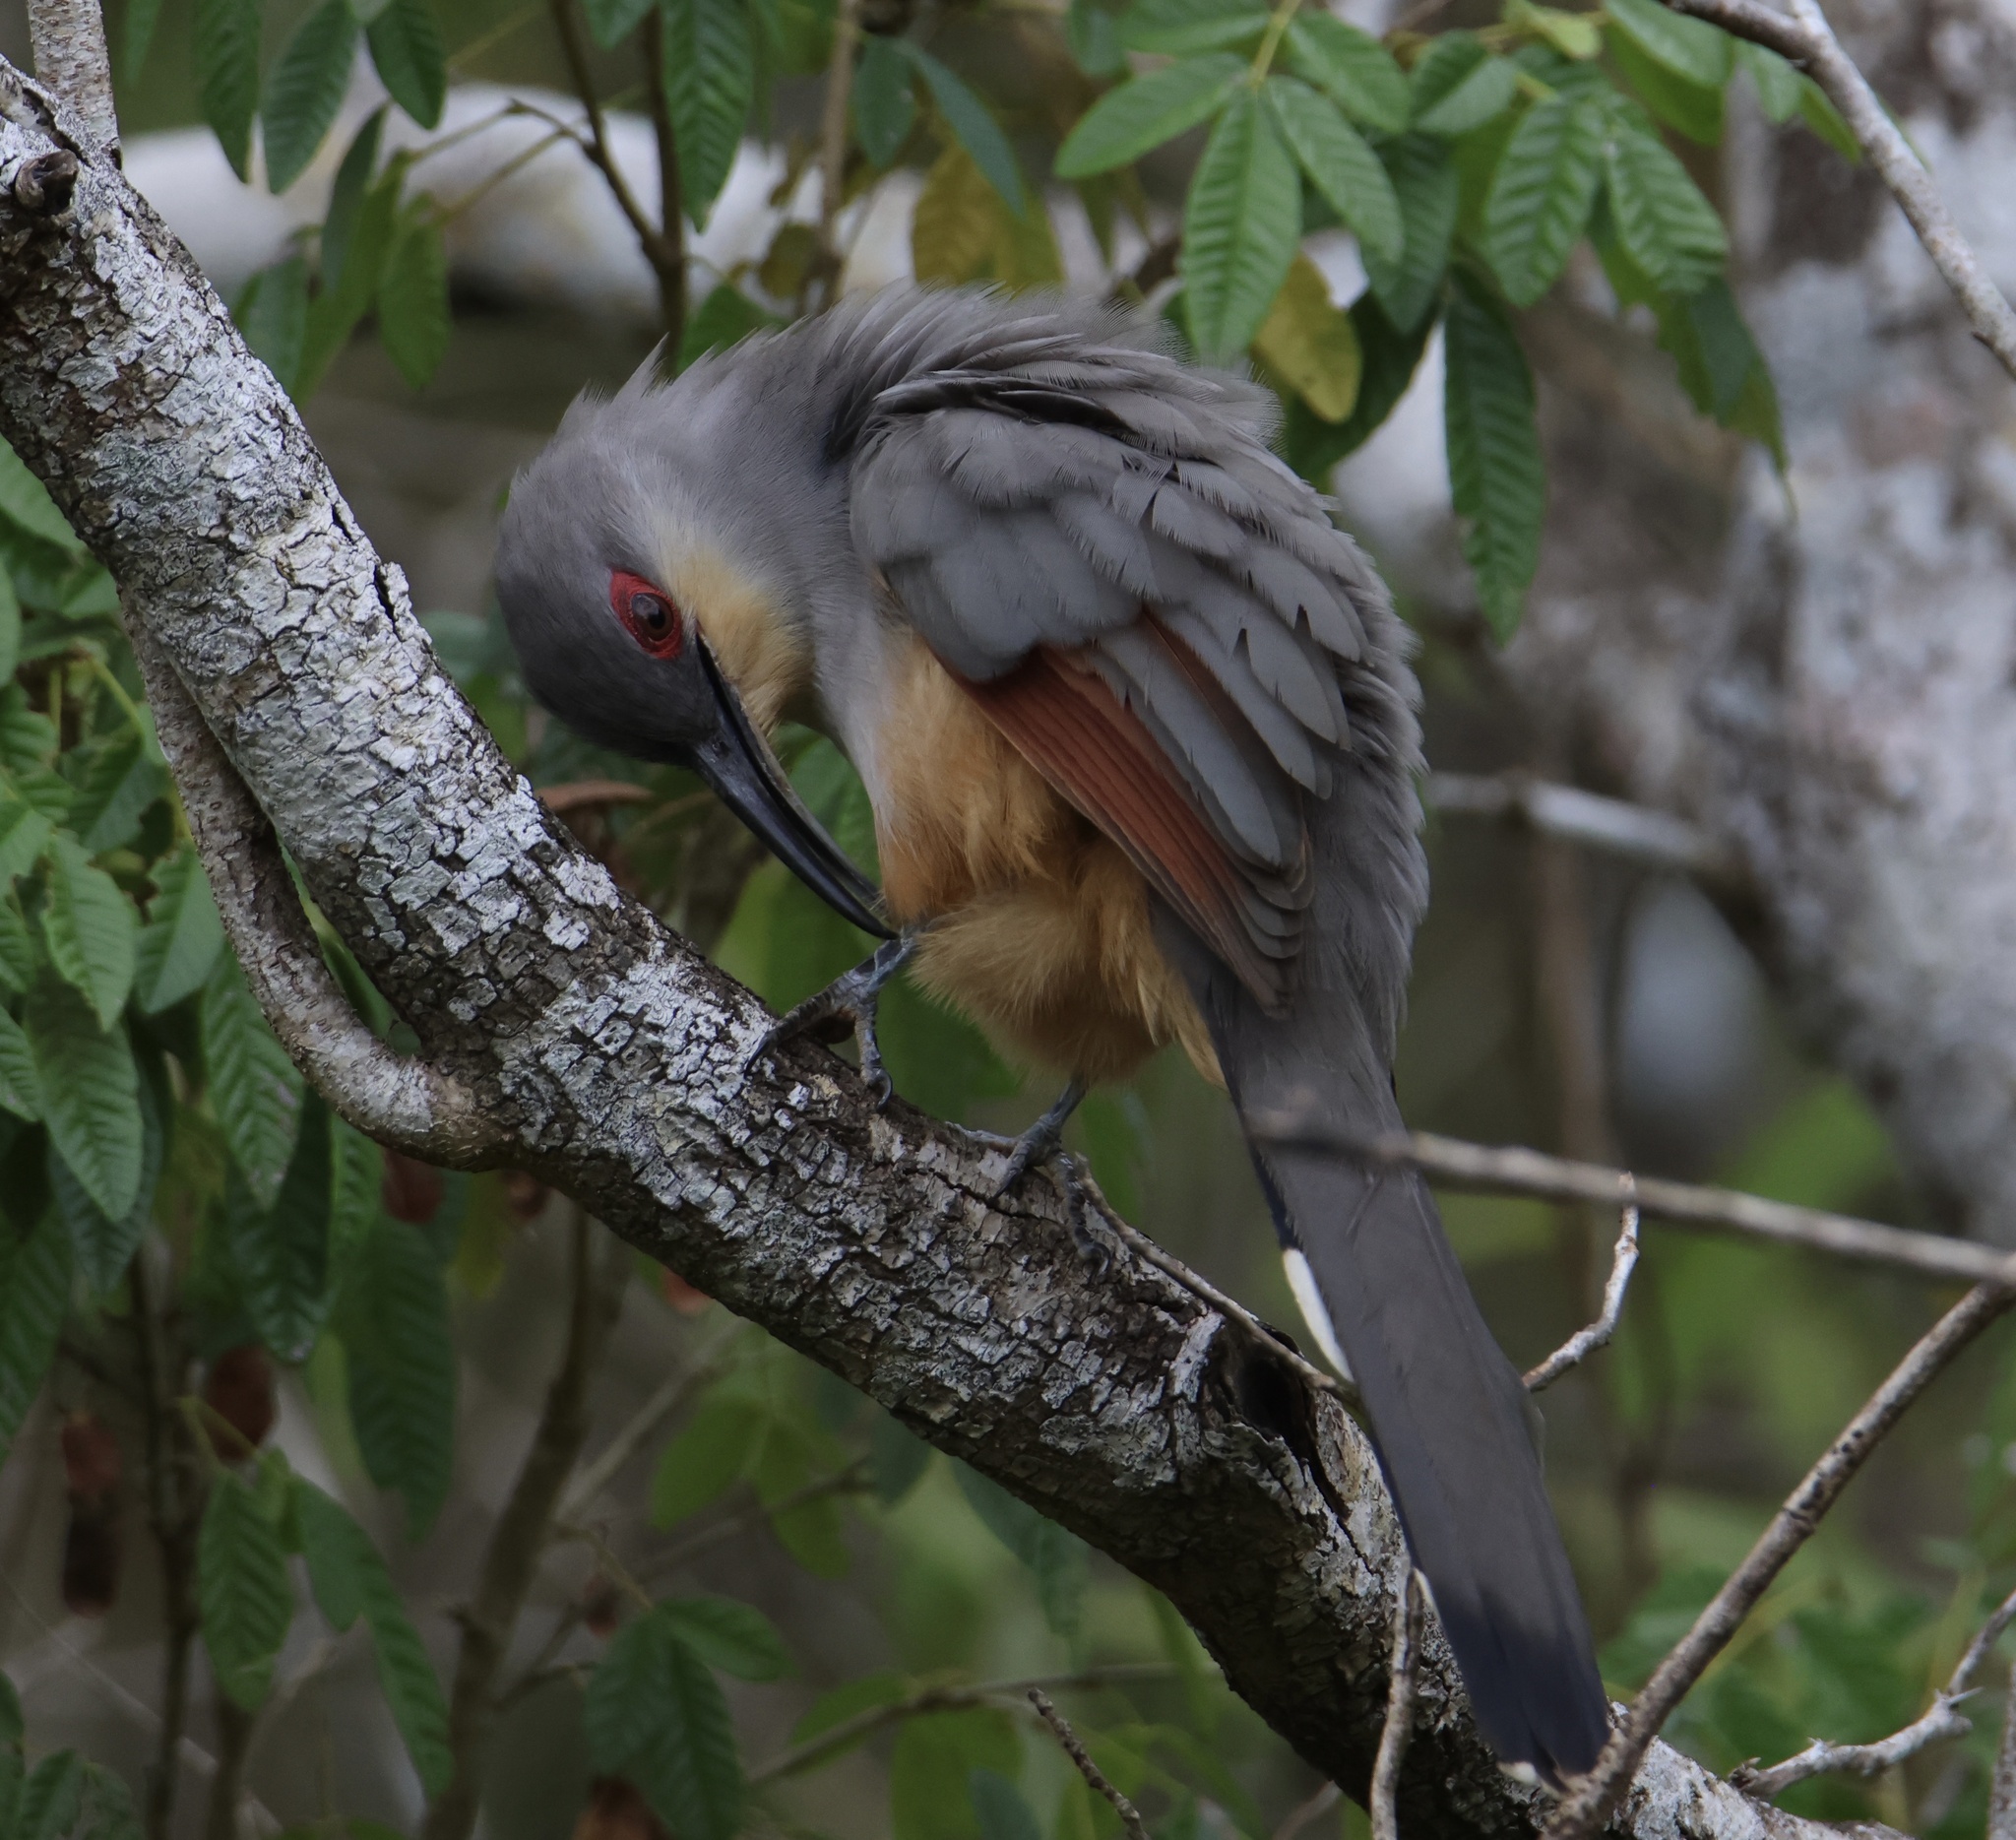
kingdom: Animalia
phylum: Chordata
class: Aves
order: Cuculiformes
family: Cuculidae
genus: Saurothera
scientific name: Saurothera longirostris
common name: Hispaniolan lizard-cuckoo
